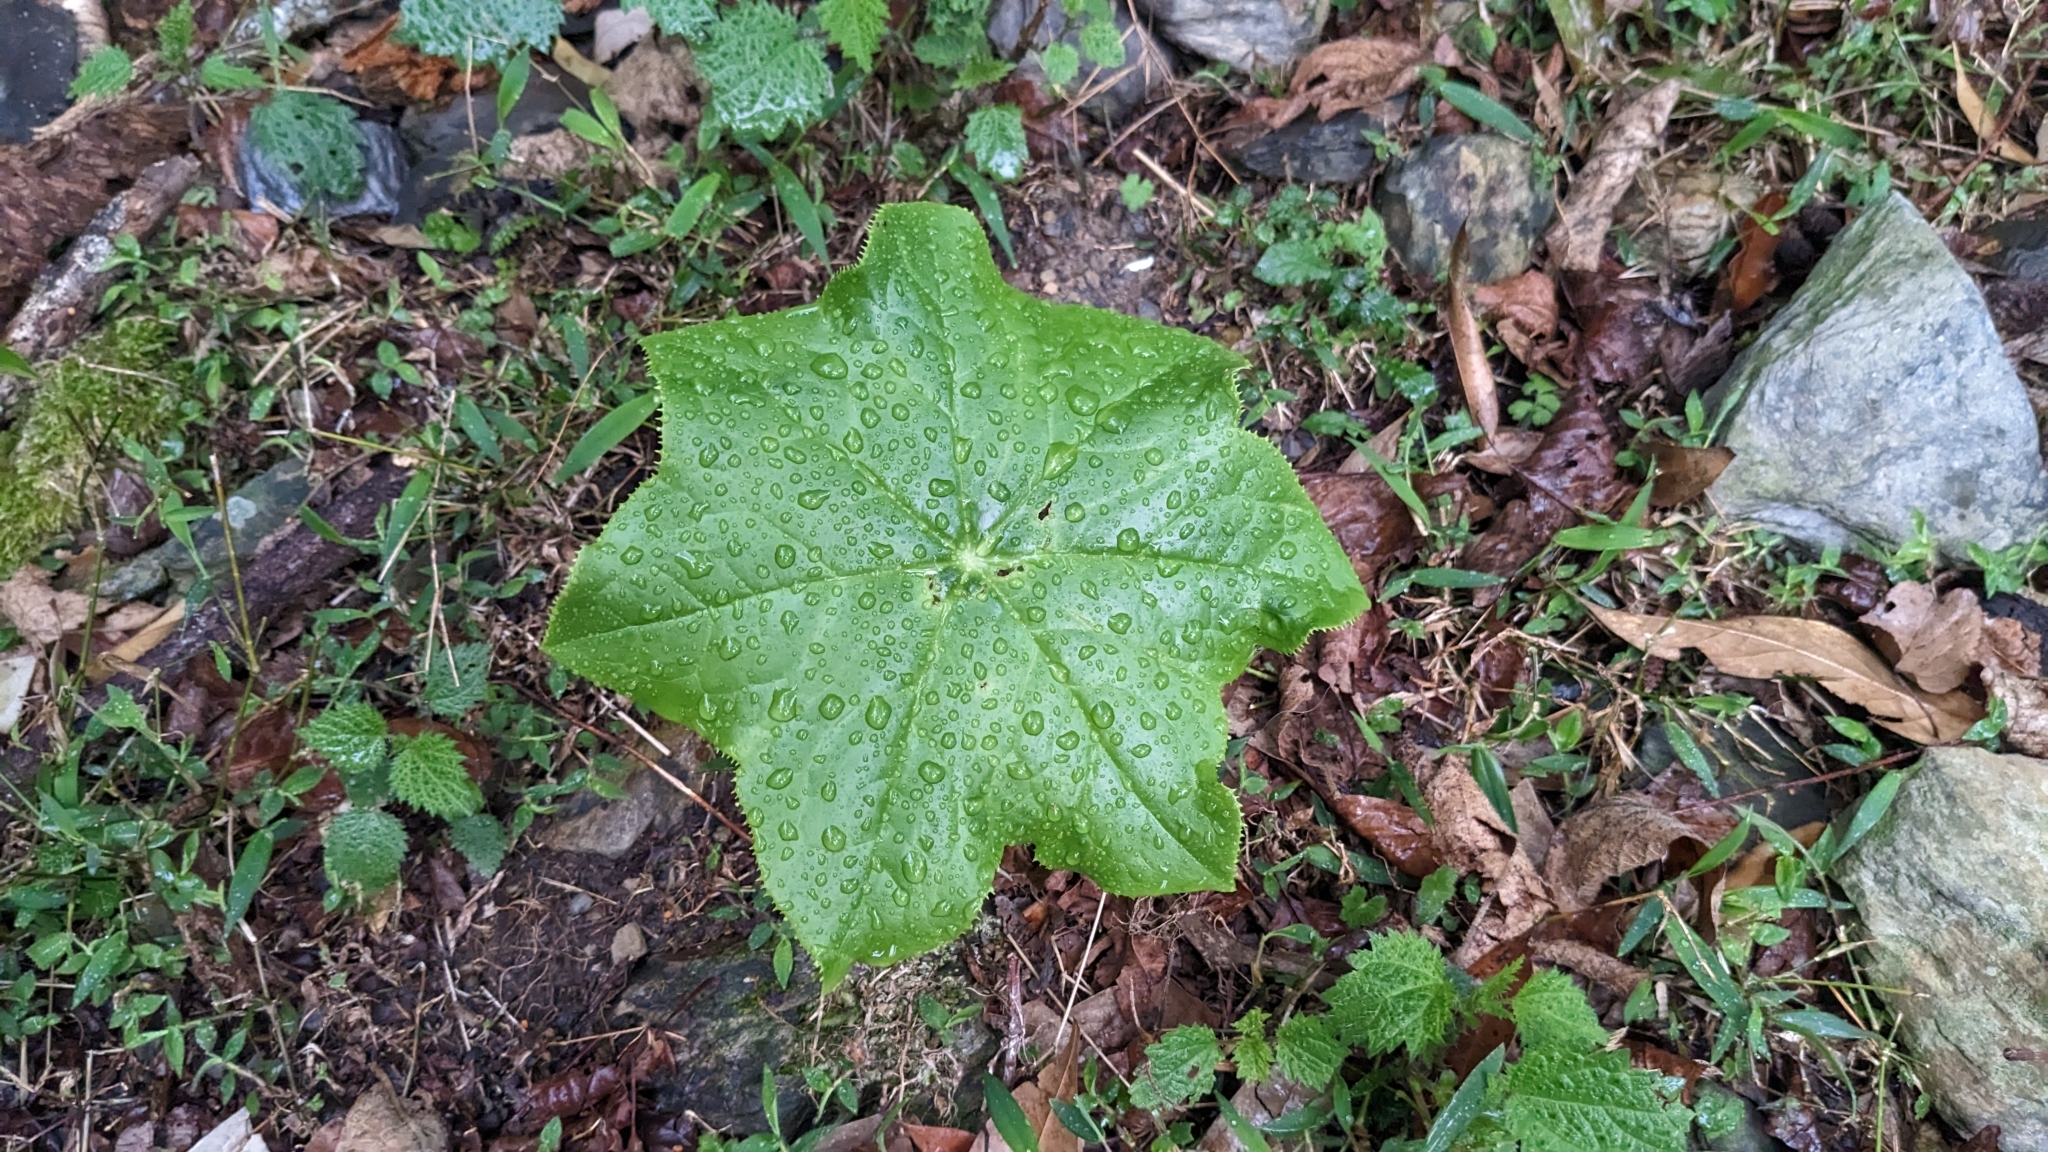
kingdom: Plantae
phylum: Tracheophyta
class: Magnoliopsida
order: Ranunculales
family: Berberidaceae
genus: Dysosma
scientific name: Dysosma pleiantha
